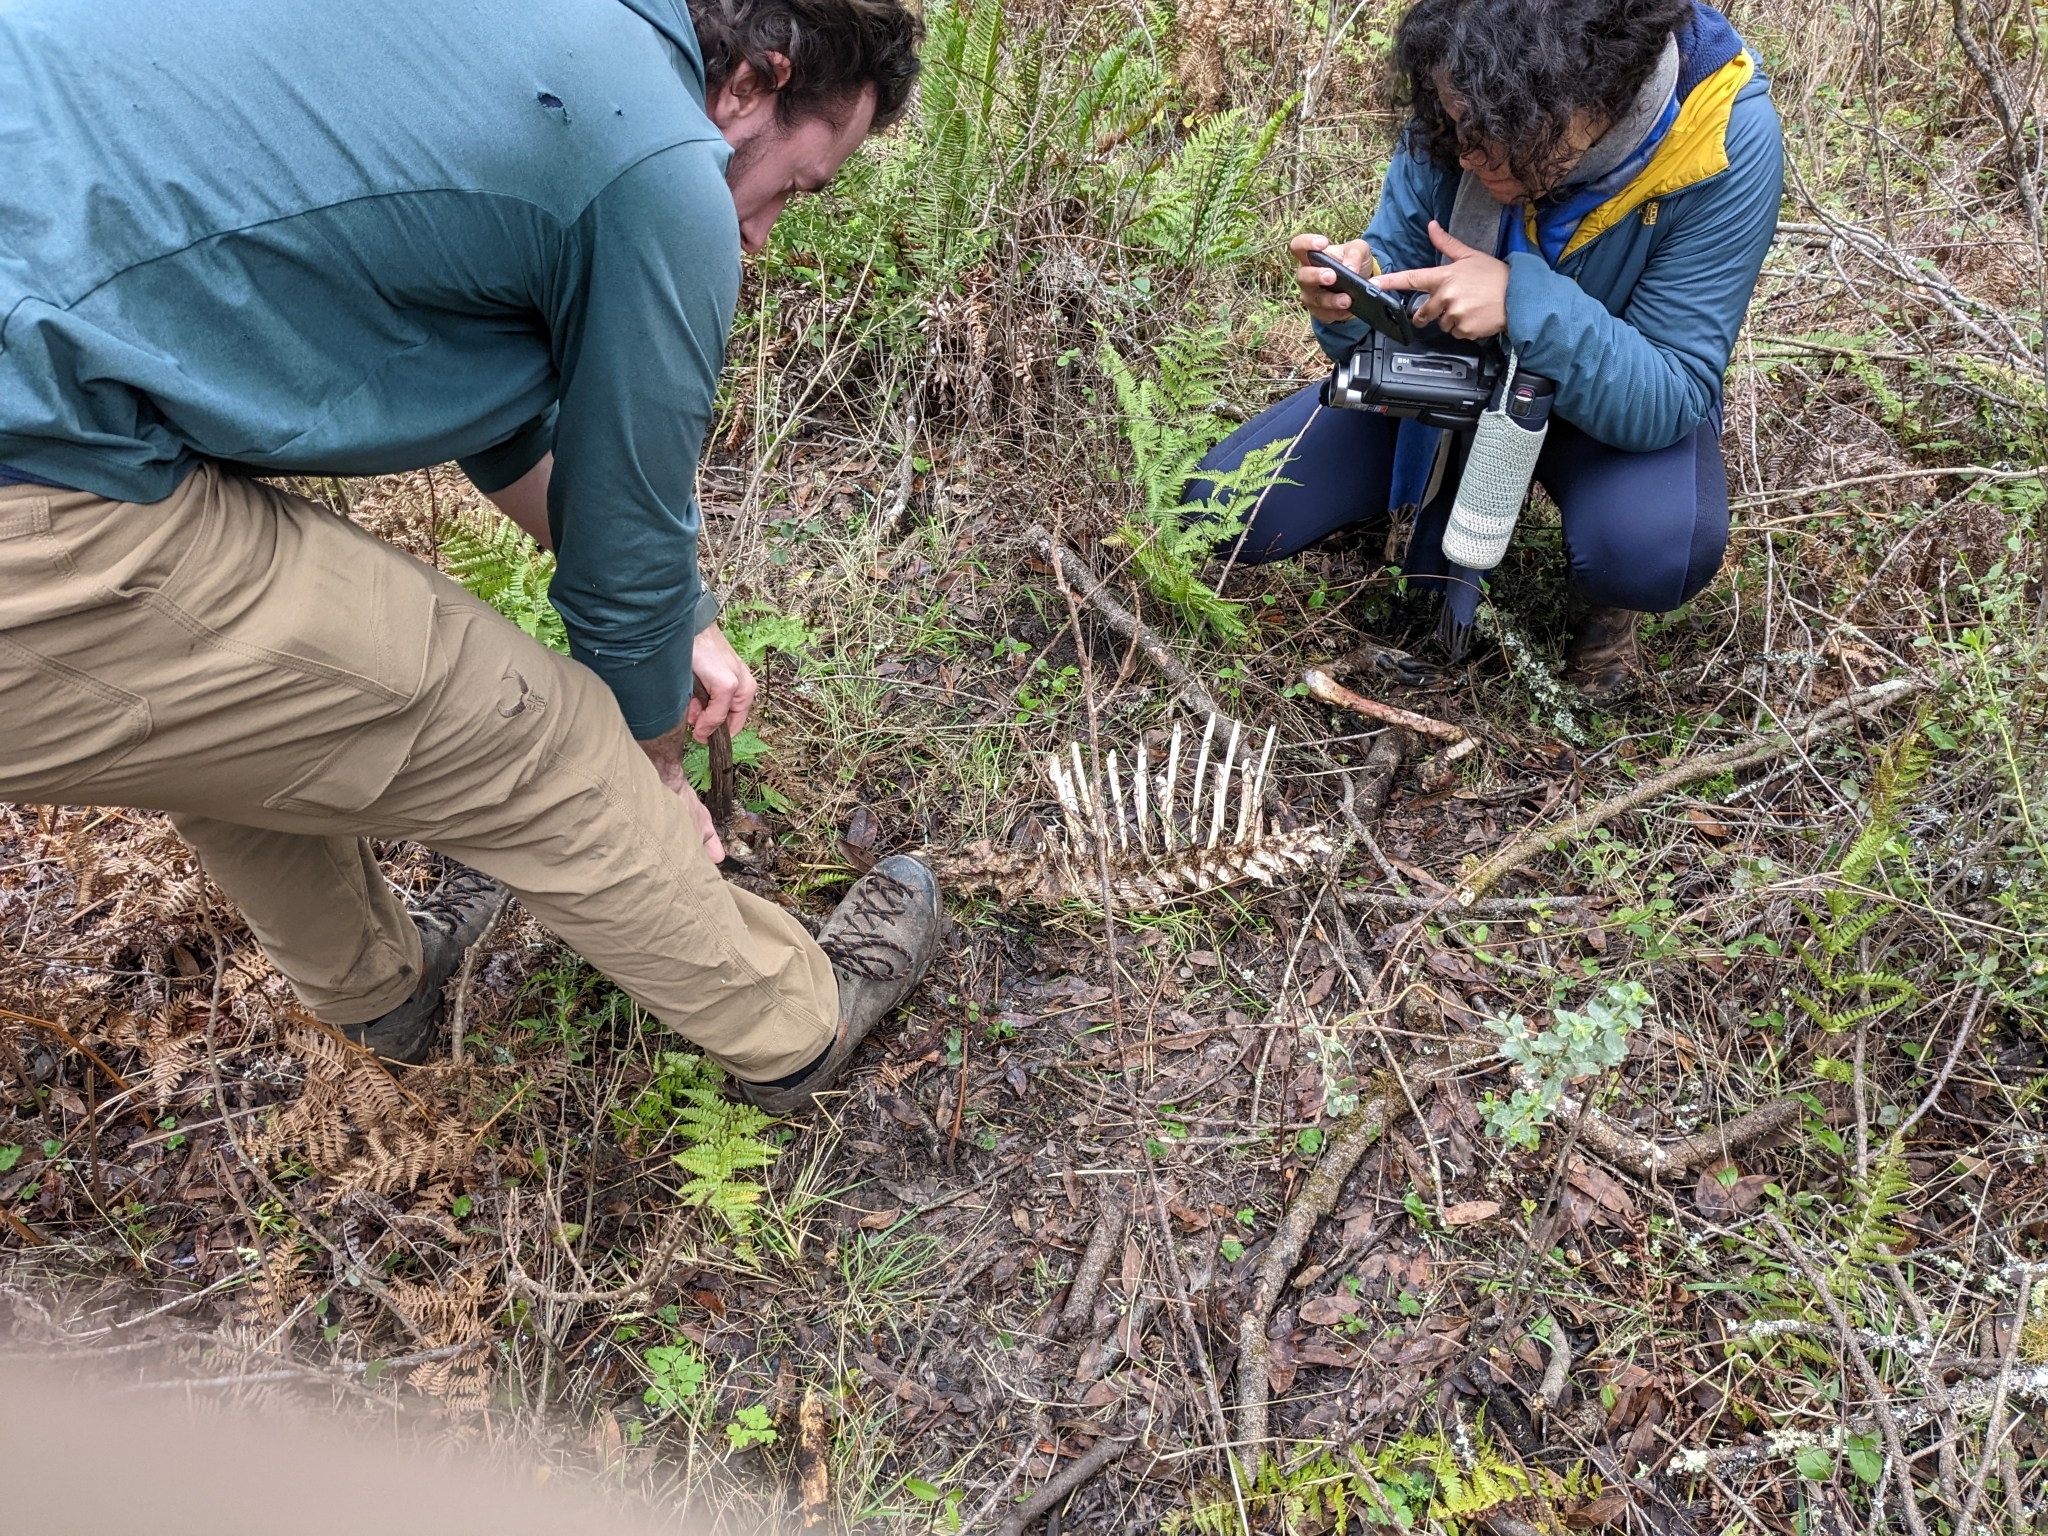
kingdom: Animalia
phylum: Chordata
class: Mammalia
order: Artiodactyla
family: Cervidae
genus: Odocoileus
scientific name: Odocoileus hemionus
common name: Mule deer
